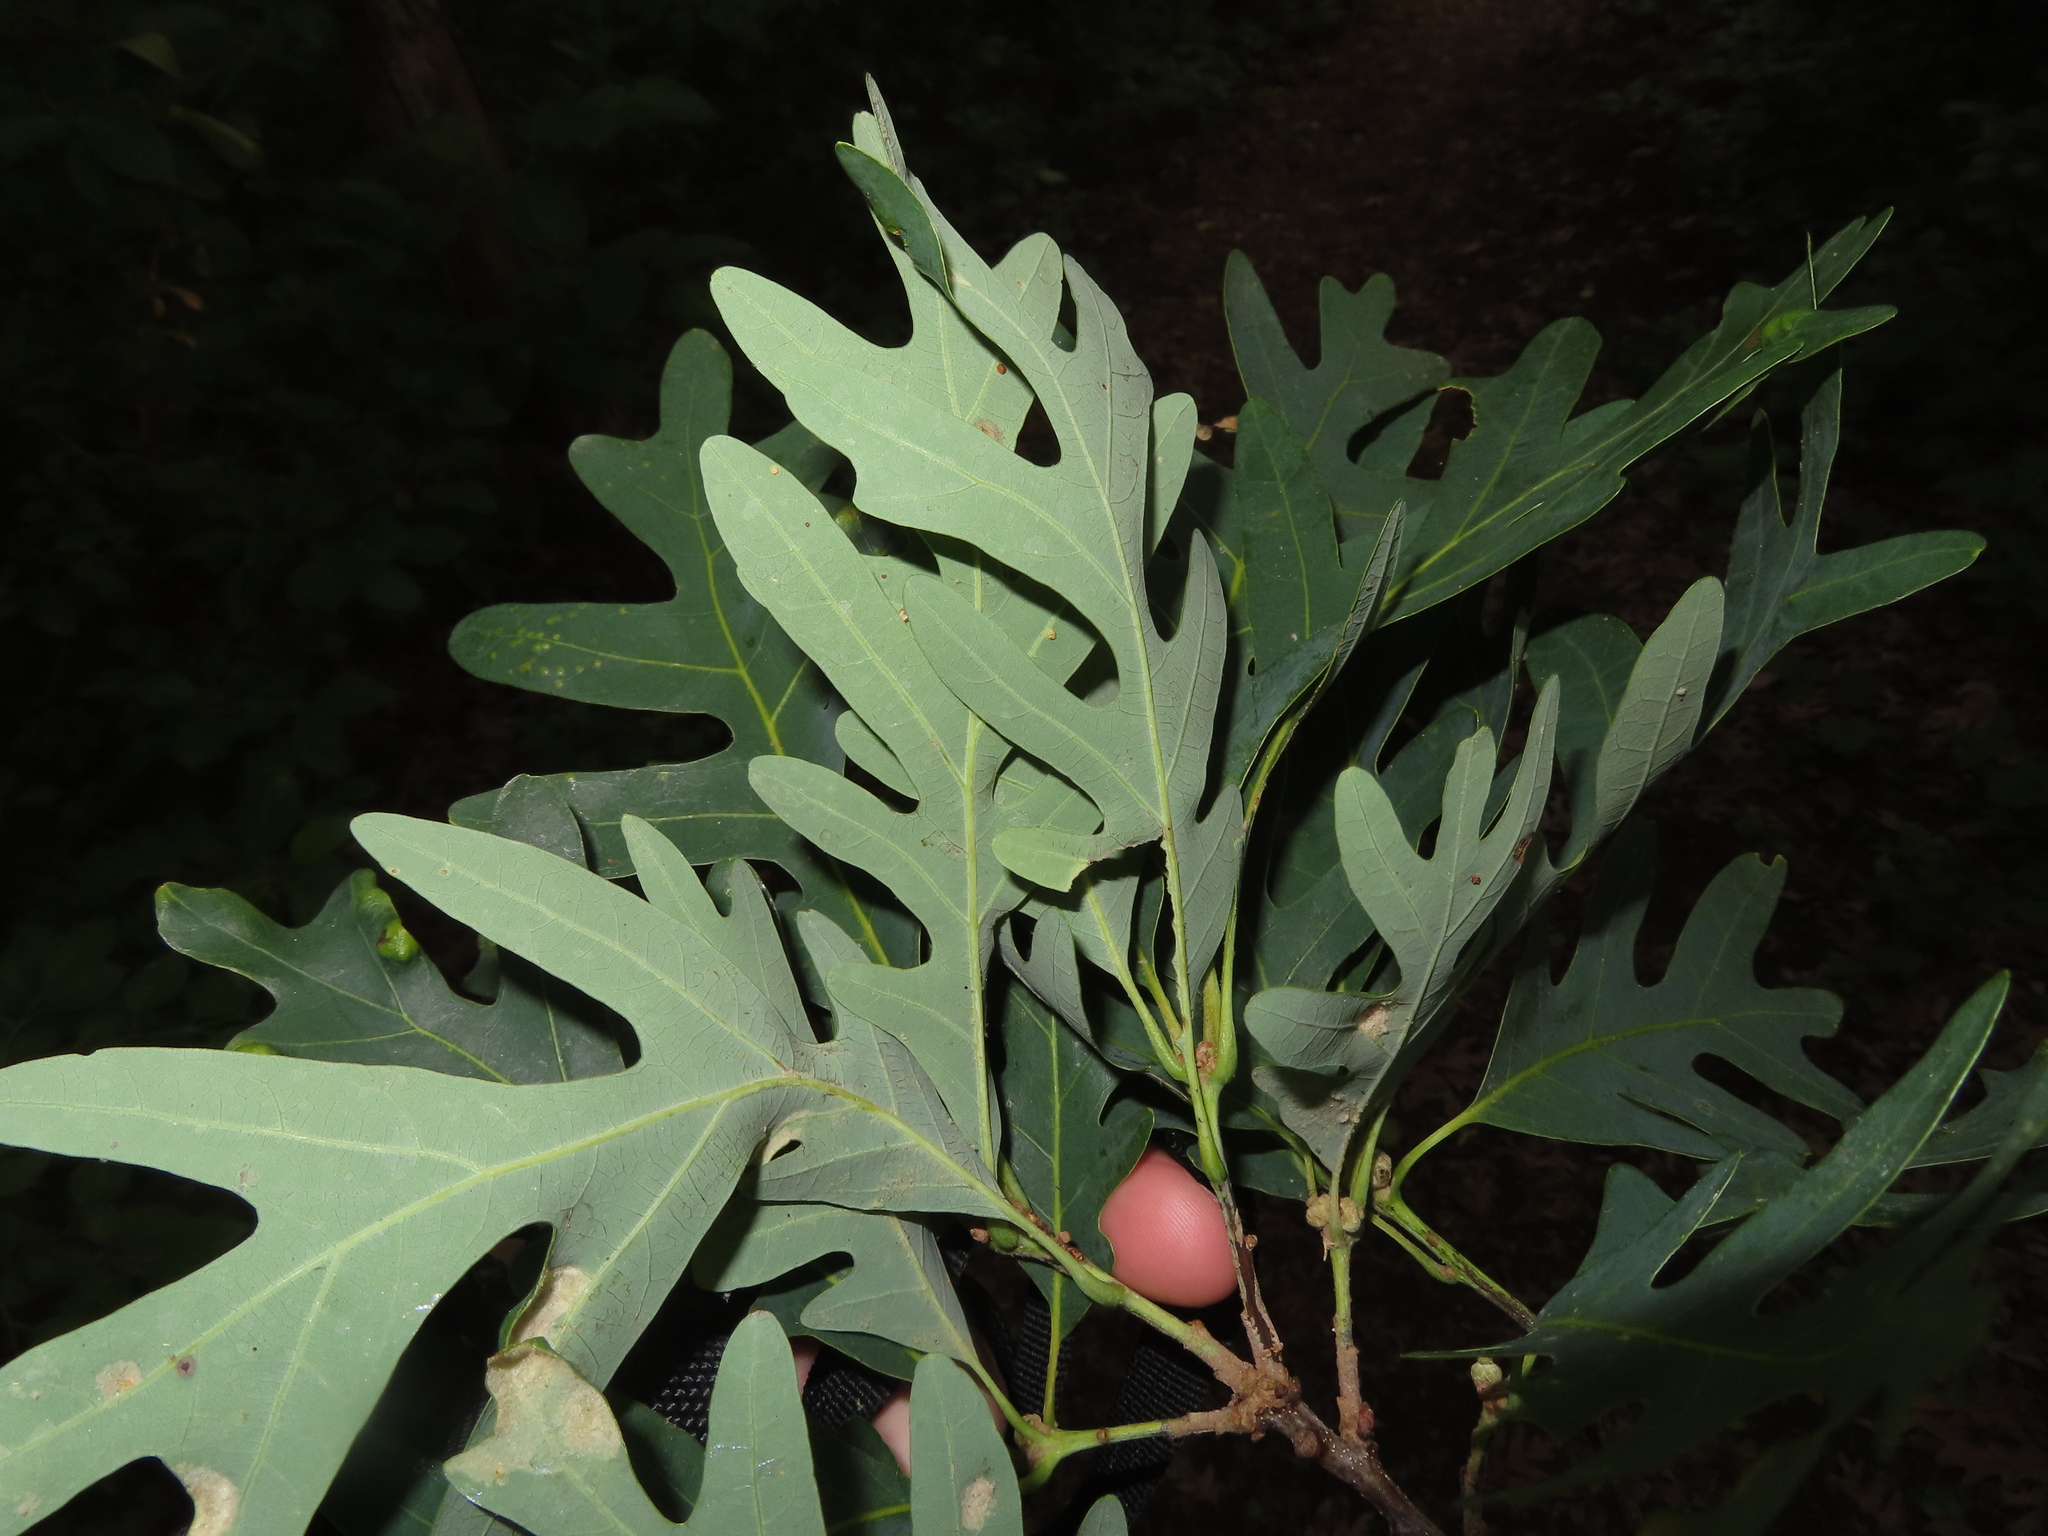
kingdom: Plantae
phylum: Tracheophyta
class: Magnoliopsida
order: Fagales
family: Fagaceae
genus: Quercus
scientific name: Quercus alba
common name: White oak
